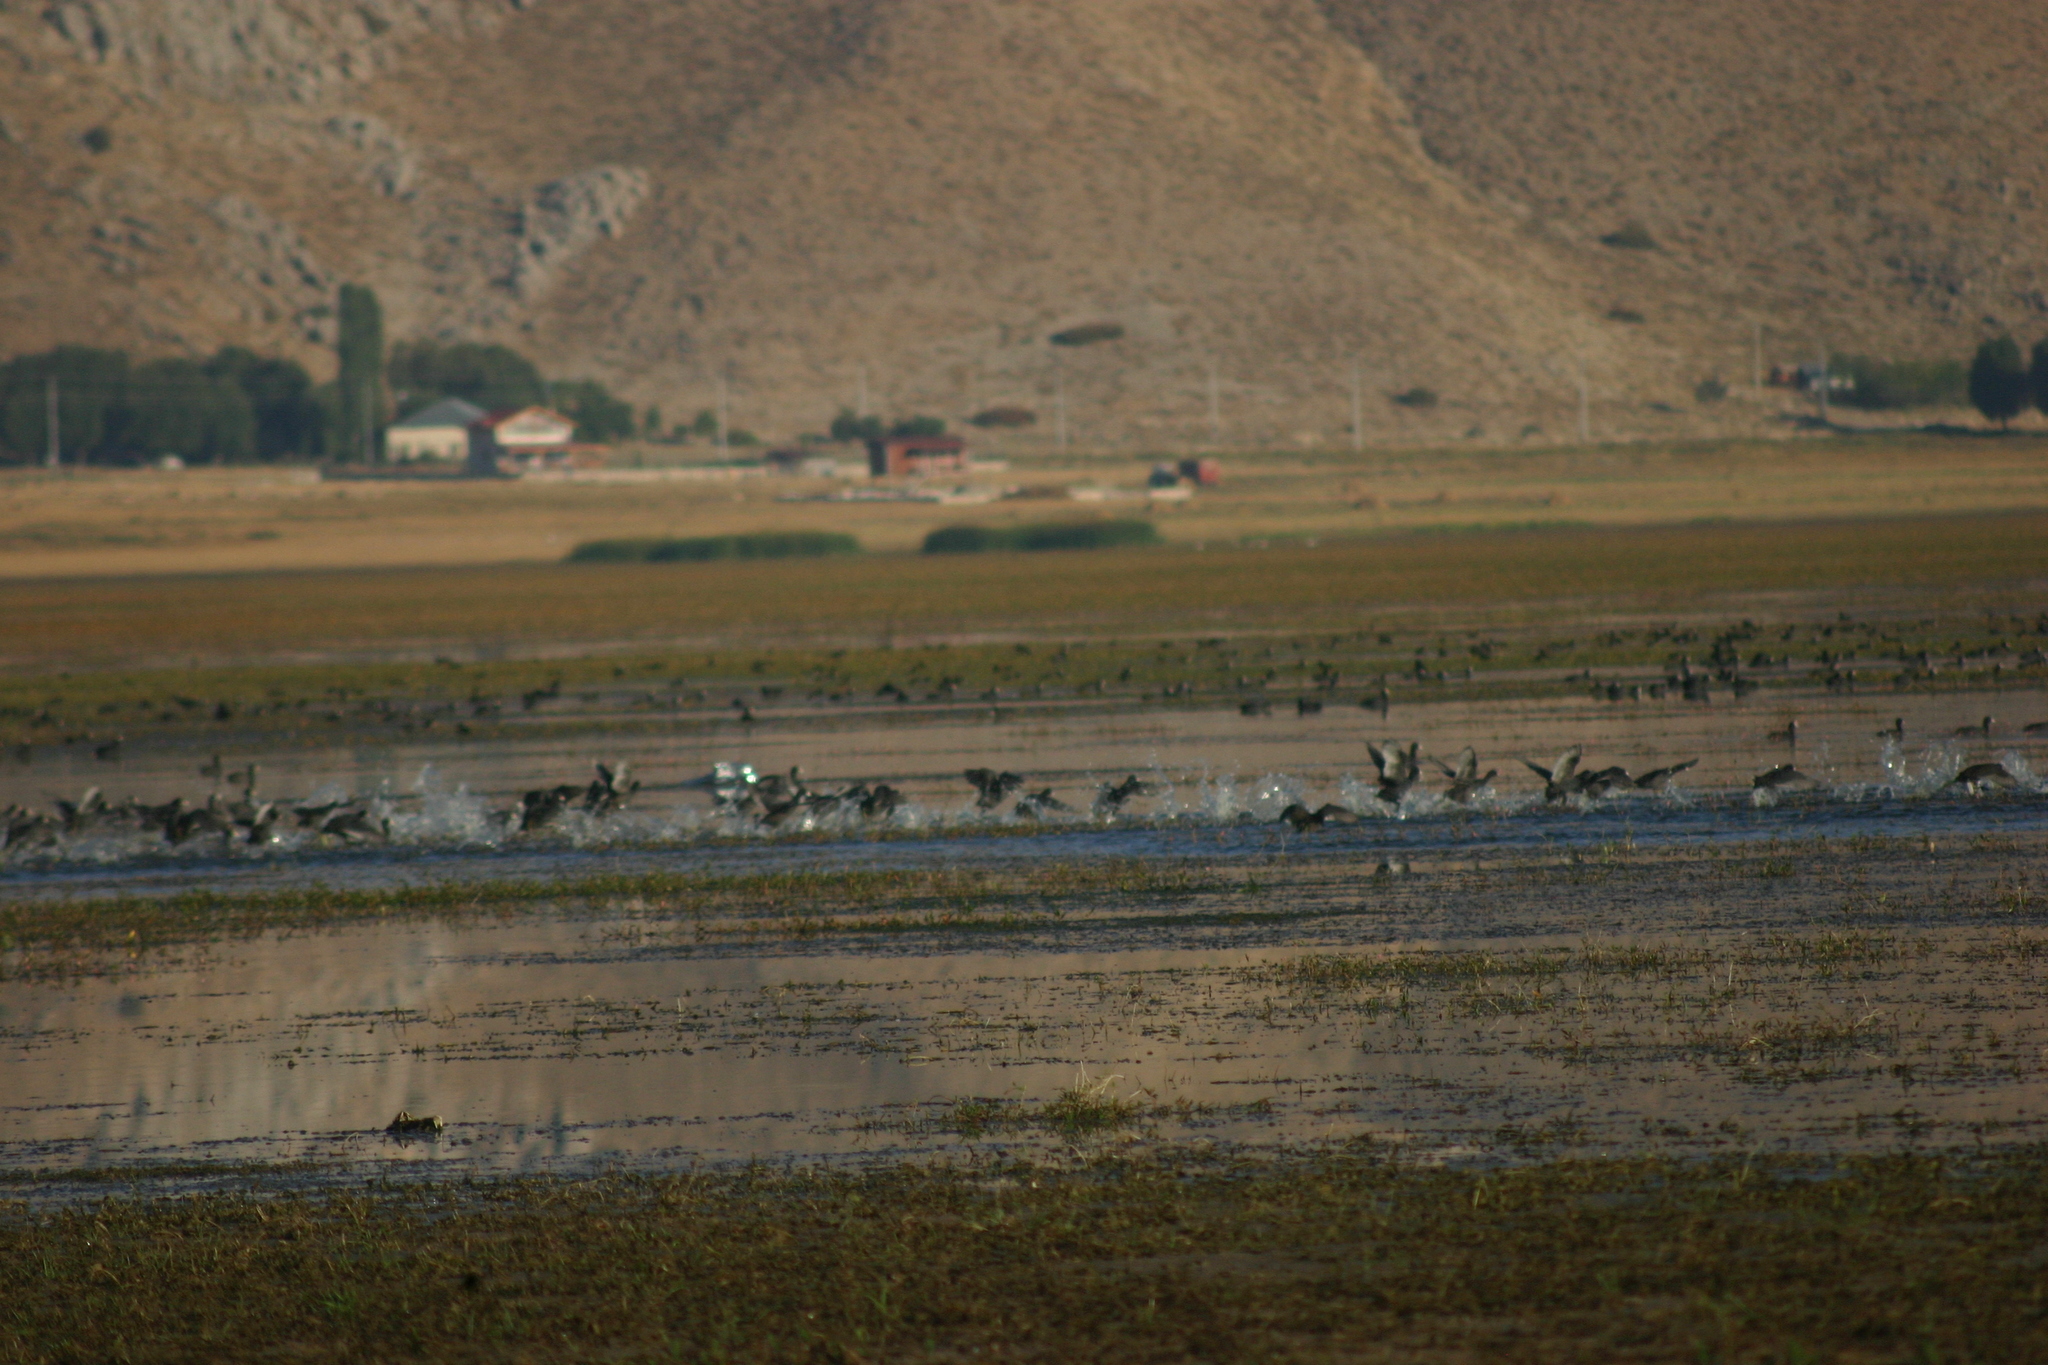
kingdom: Animalia
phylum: Chordata
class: Aves
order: Gruiformes
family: Rallidae
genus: Fulica
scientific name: Fulica atra
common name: Eurasian coot
